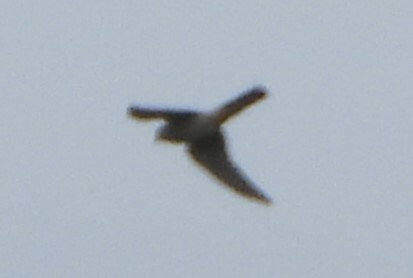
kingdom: Animalia
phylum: Chordata
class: Aves
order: Falconiformes
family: Falconidae
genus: Falco
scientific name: Falco sparverius
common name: American kestrel
